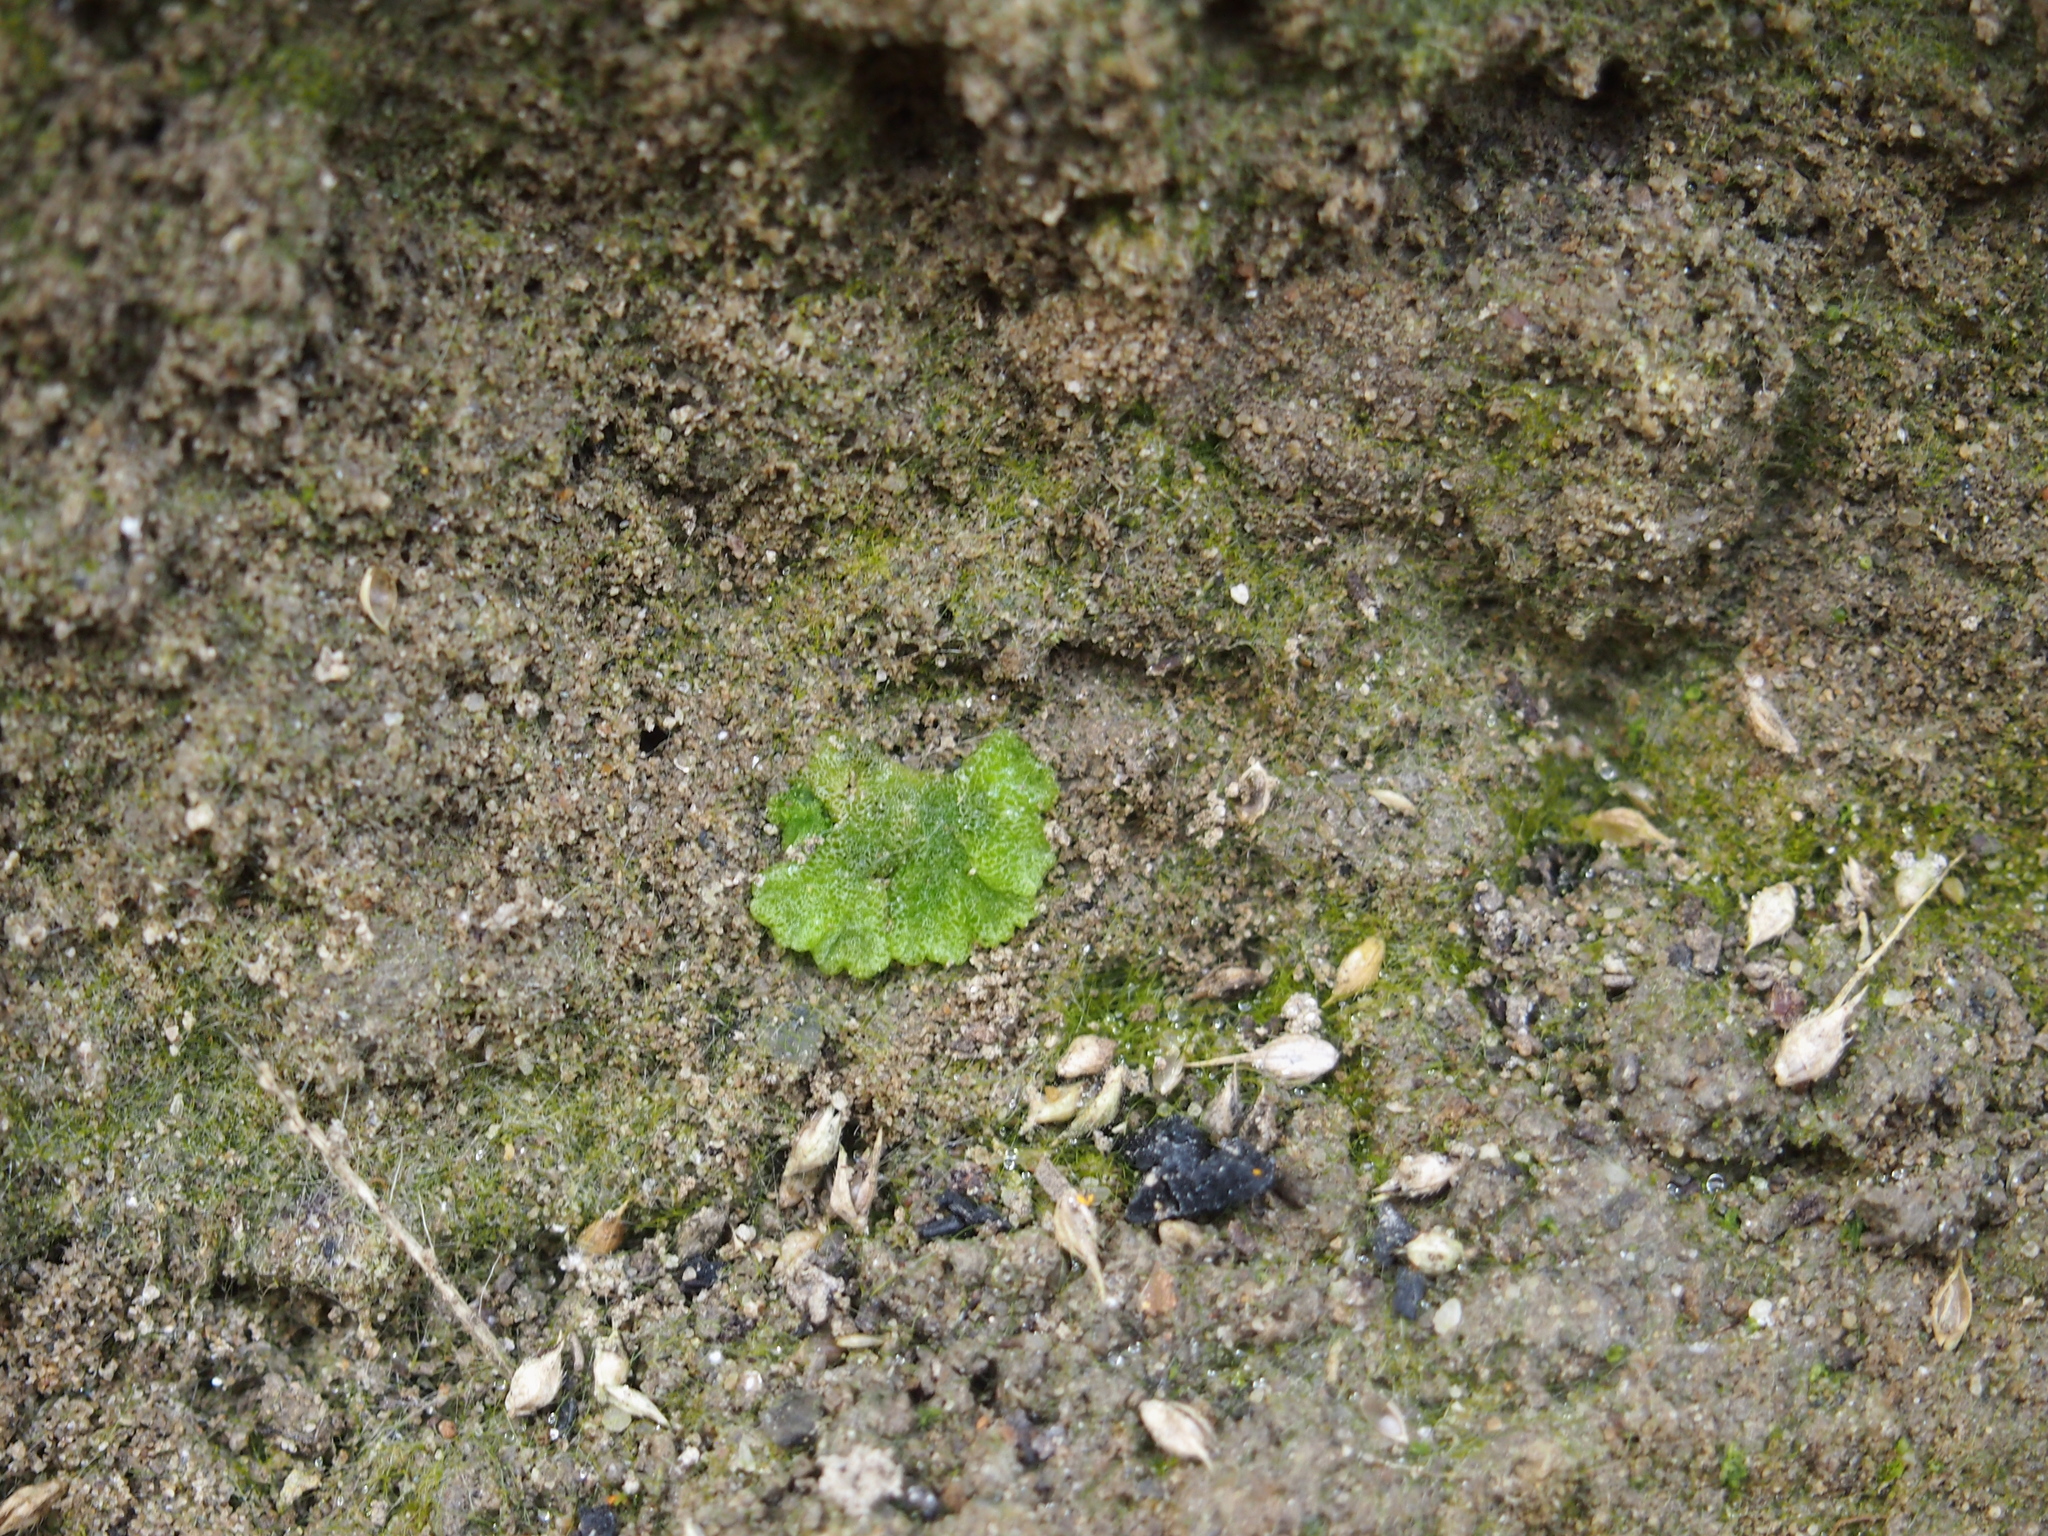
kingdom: Plantae
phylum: Marchantiophyta
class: Marchantiopsida
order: Marchantiales
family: Ricciaceae
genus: Riccia
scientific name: Riccia cavernosa
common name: Cavernous crystalwort
